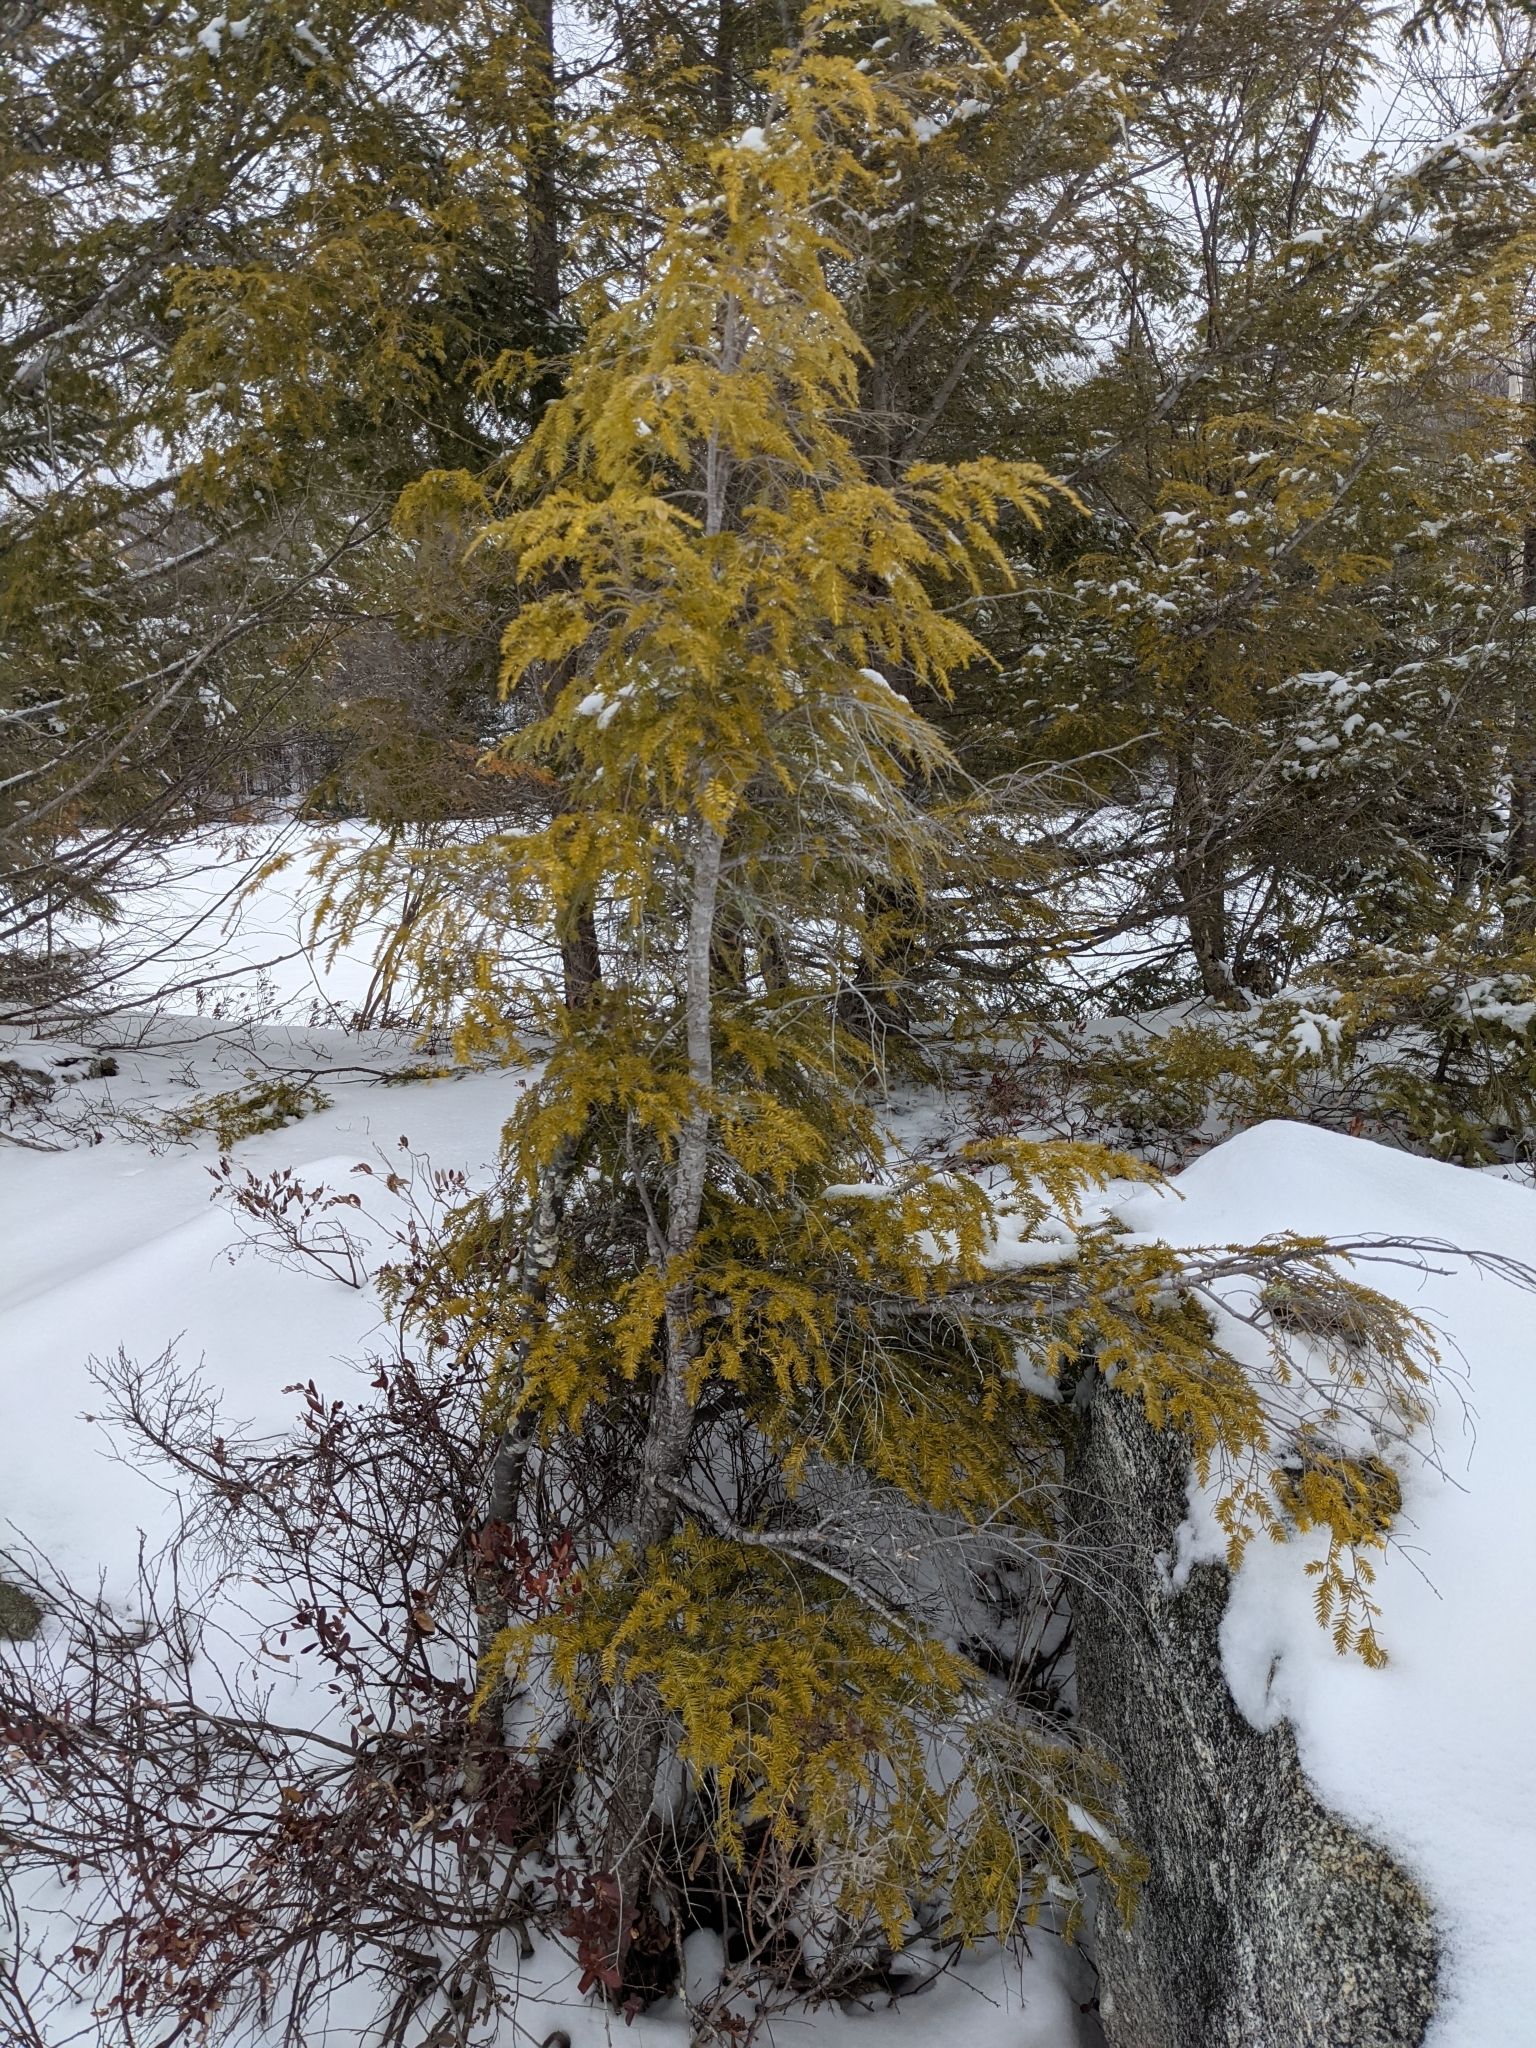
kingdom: Plantae
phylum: Tracheophyta
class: Pinopsida
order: Pinales
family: Pinaceae
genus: Tsuga
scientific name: Tsuga canadensis
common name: Eastern hemlock
